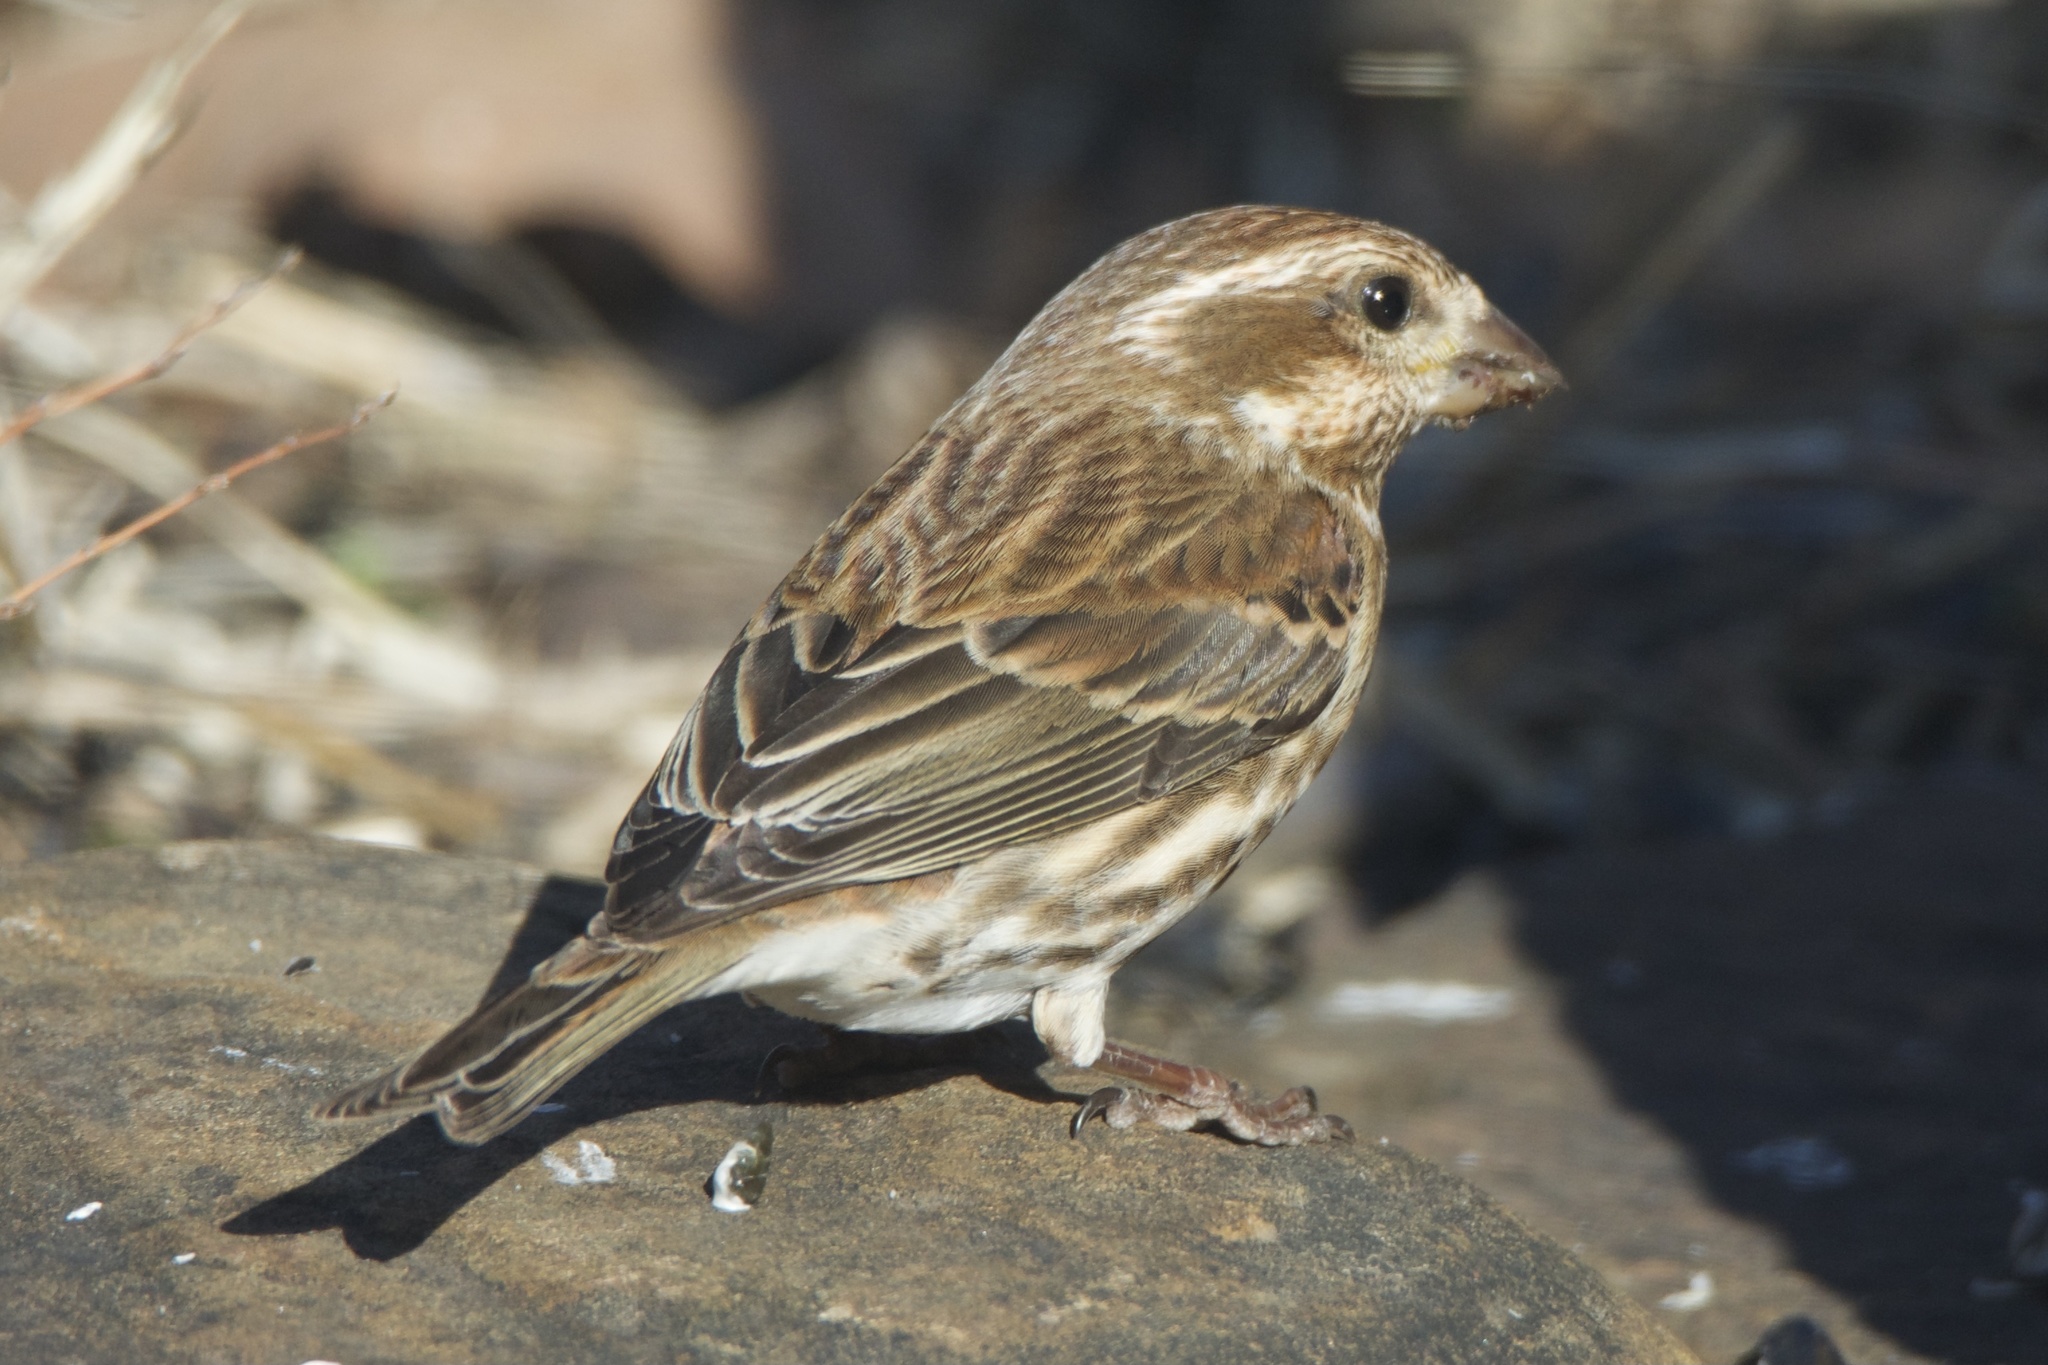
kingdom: Animalia
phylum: Chordata
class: Aves
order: Passeriformes
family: Fringillidae
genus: Haemorhous
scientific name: Haemorhous purpureus
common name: Purple finch
